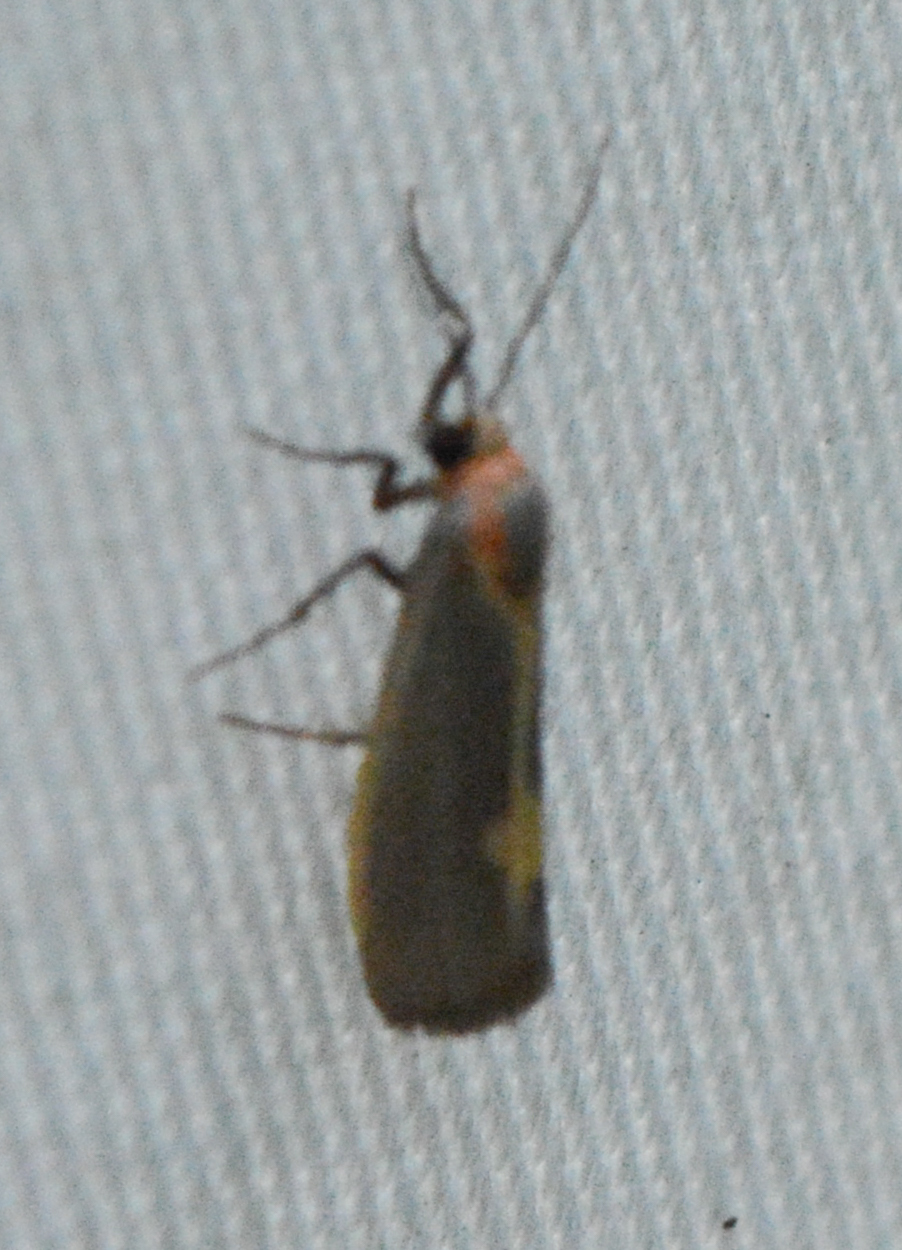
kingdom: Animalia
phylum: Arthropoda
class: Insecta
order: Lepidoptera
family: Erebidae
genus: Cisthene
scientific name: Cisthene plumbea
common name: Lead colored lichen moth
